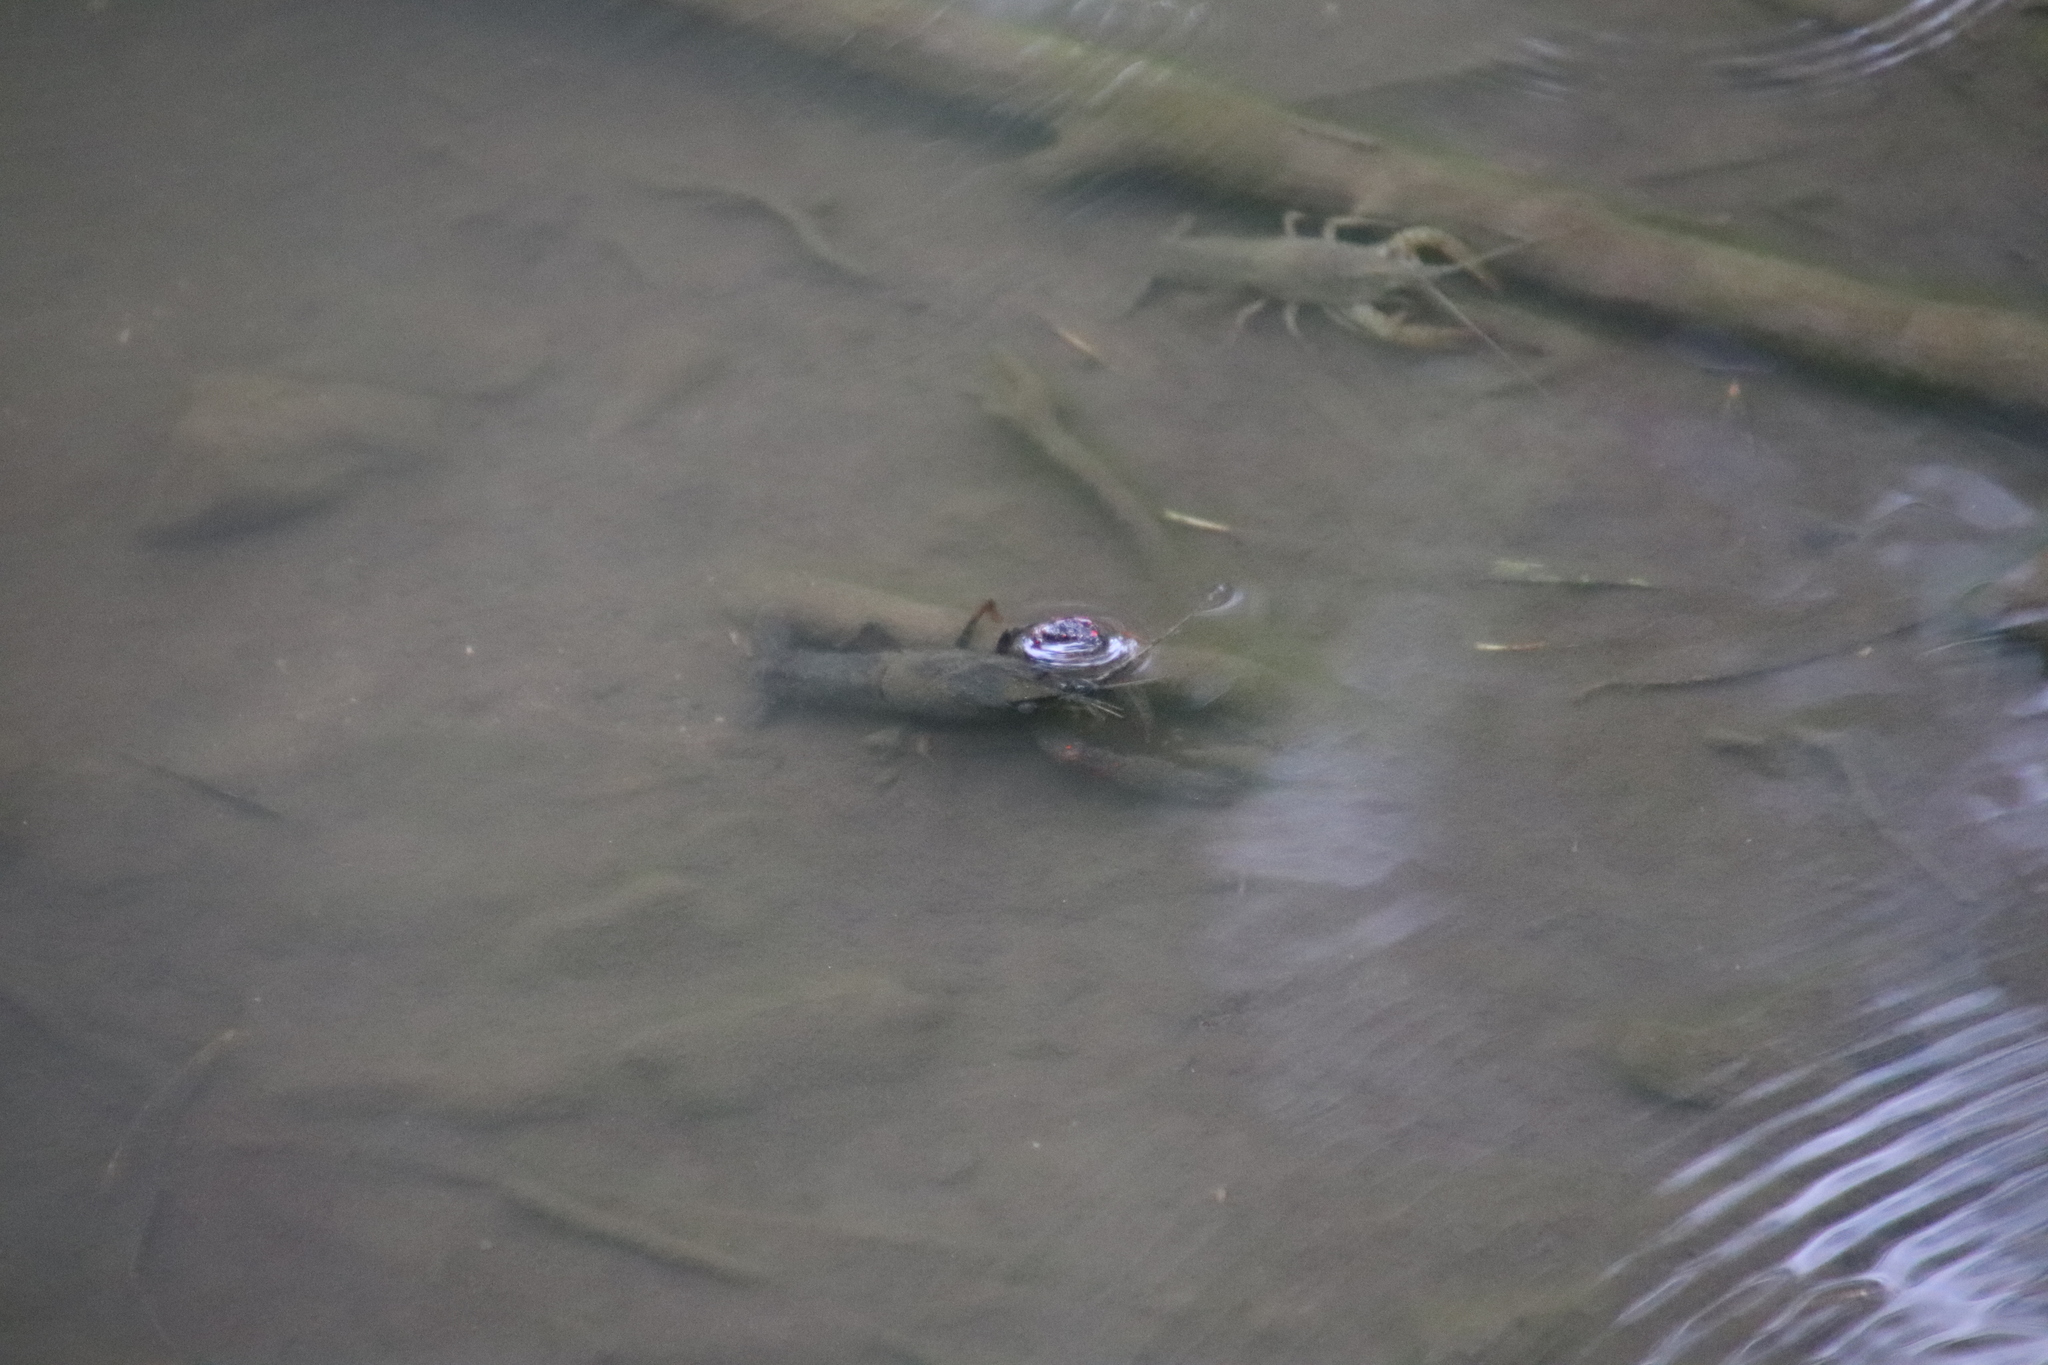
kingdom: Animalia
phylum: Arthropoda
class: Malacostraca
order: Decapoda
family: Cambaridae
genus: Procambarus
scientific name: Procambarus clarkii
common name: Red swamp crayfish
